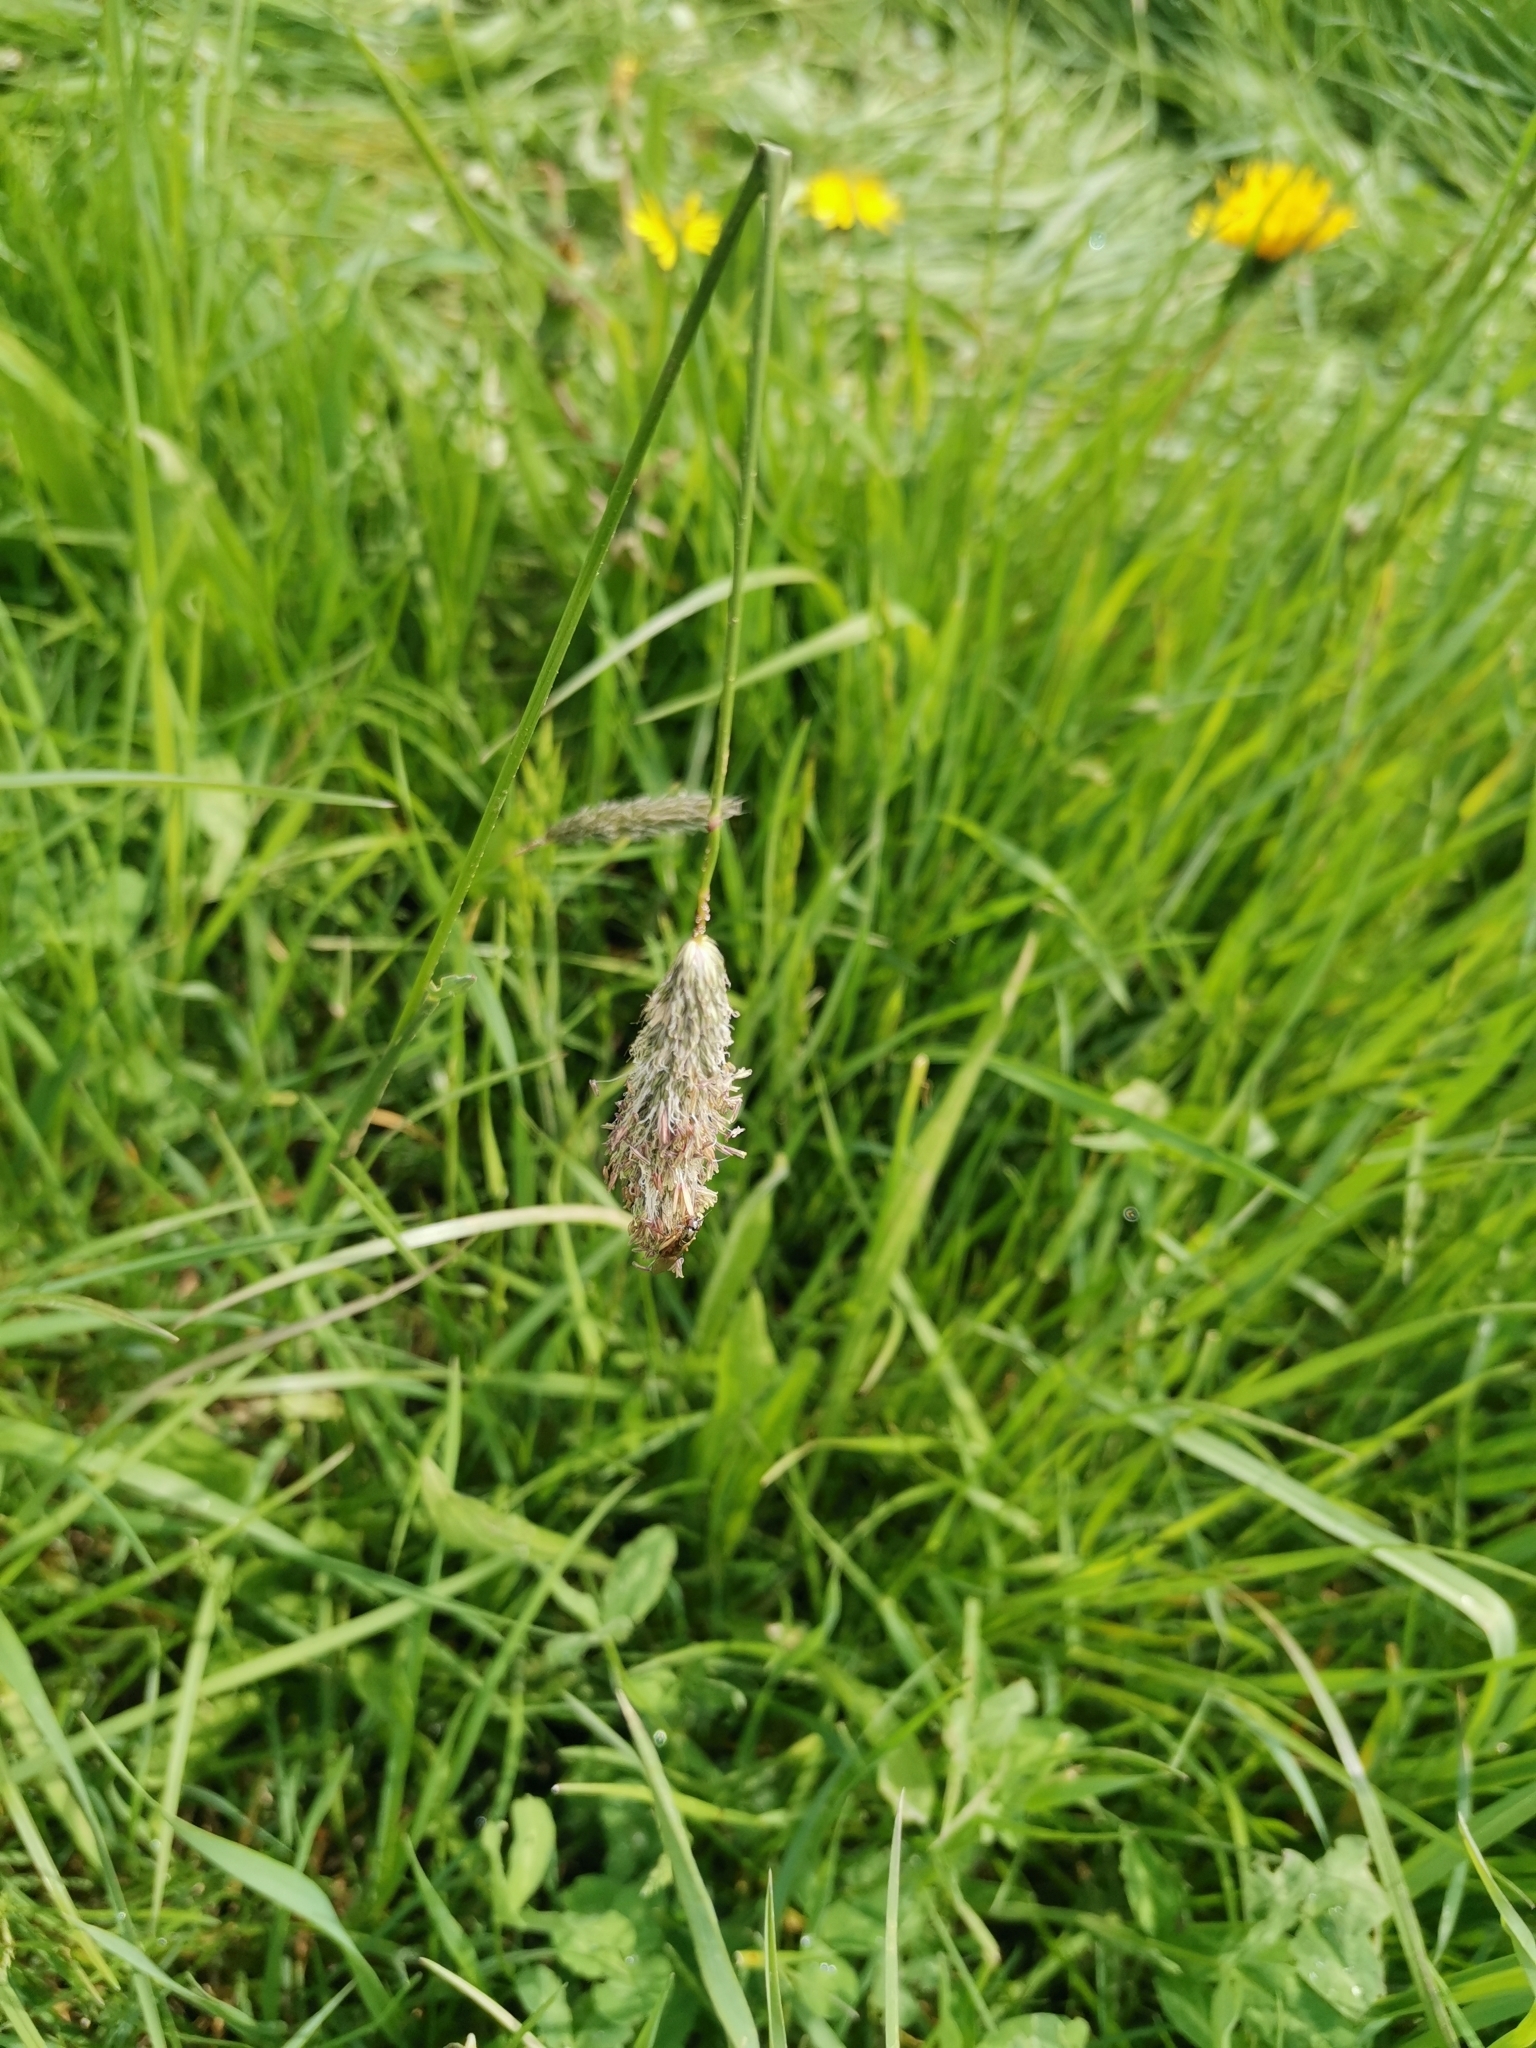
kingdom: Plantae
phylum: Tracheophyta
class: Liliopsida
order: Poales
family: Poaceae
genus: Alopecurus
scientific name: Alopecurus pratensis
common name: Meadow foxtail
